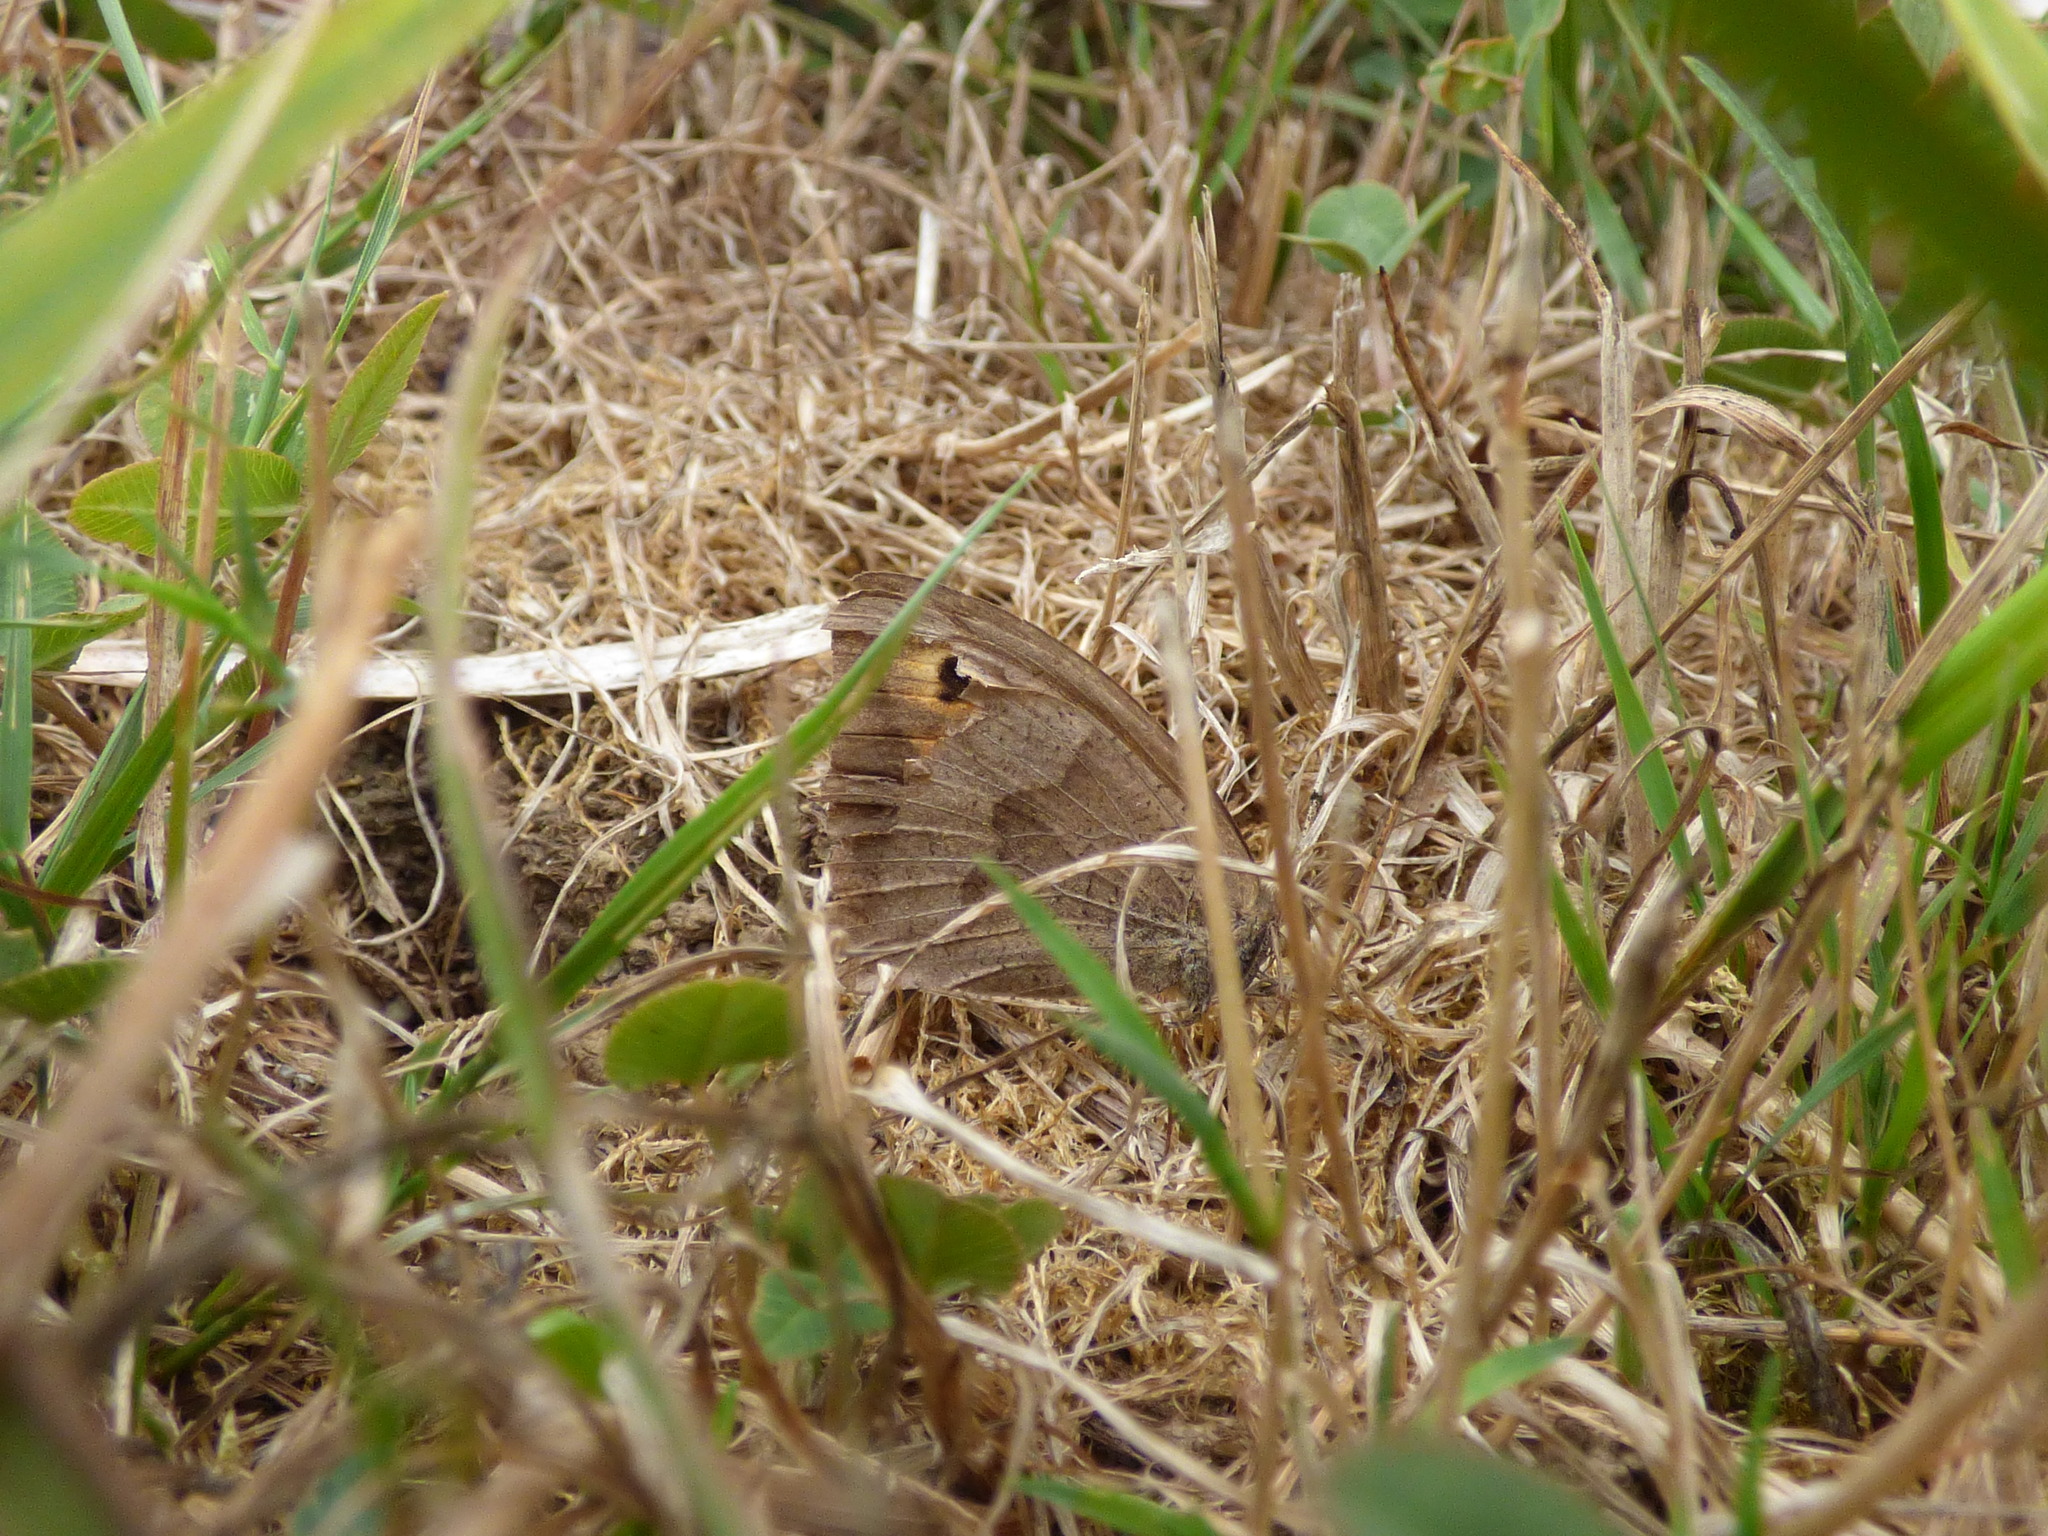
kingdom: Animalia
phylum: Arthropoda
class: Insecta
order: Lepidoptera
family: Nymphalidae
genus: Maniola
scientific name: Maniola jurtina
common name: Meadow brown
